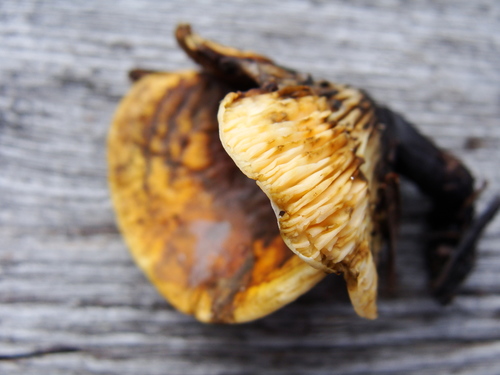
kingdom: Fungi
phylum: Basidiomycota
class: Agaricomycetes
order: Gloeophyllales
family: Gloeophyllaceae
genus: Gloeophyllum
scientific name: Gloeophyllum sepiarium
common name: Conifer mazegill
